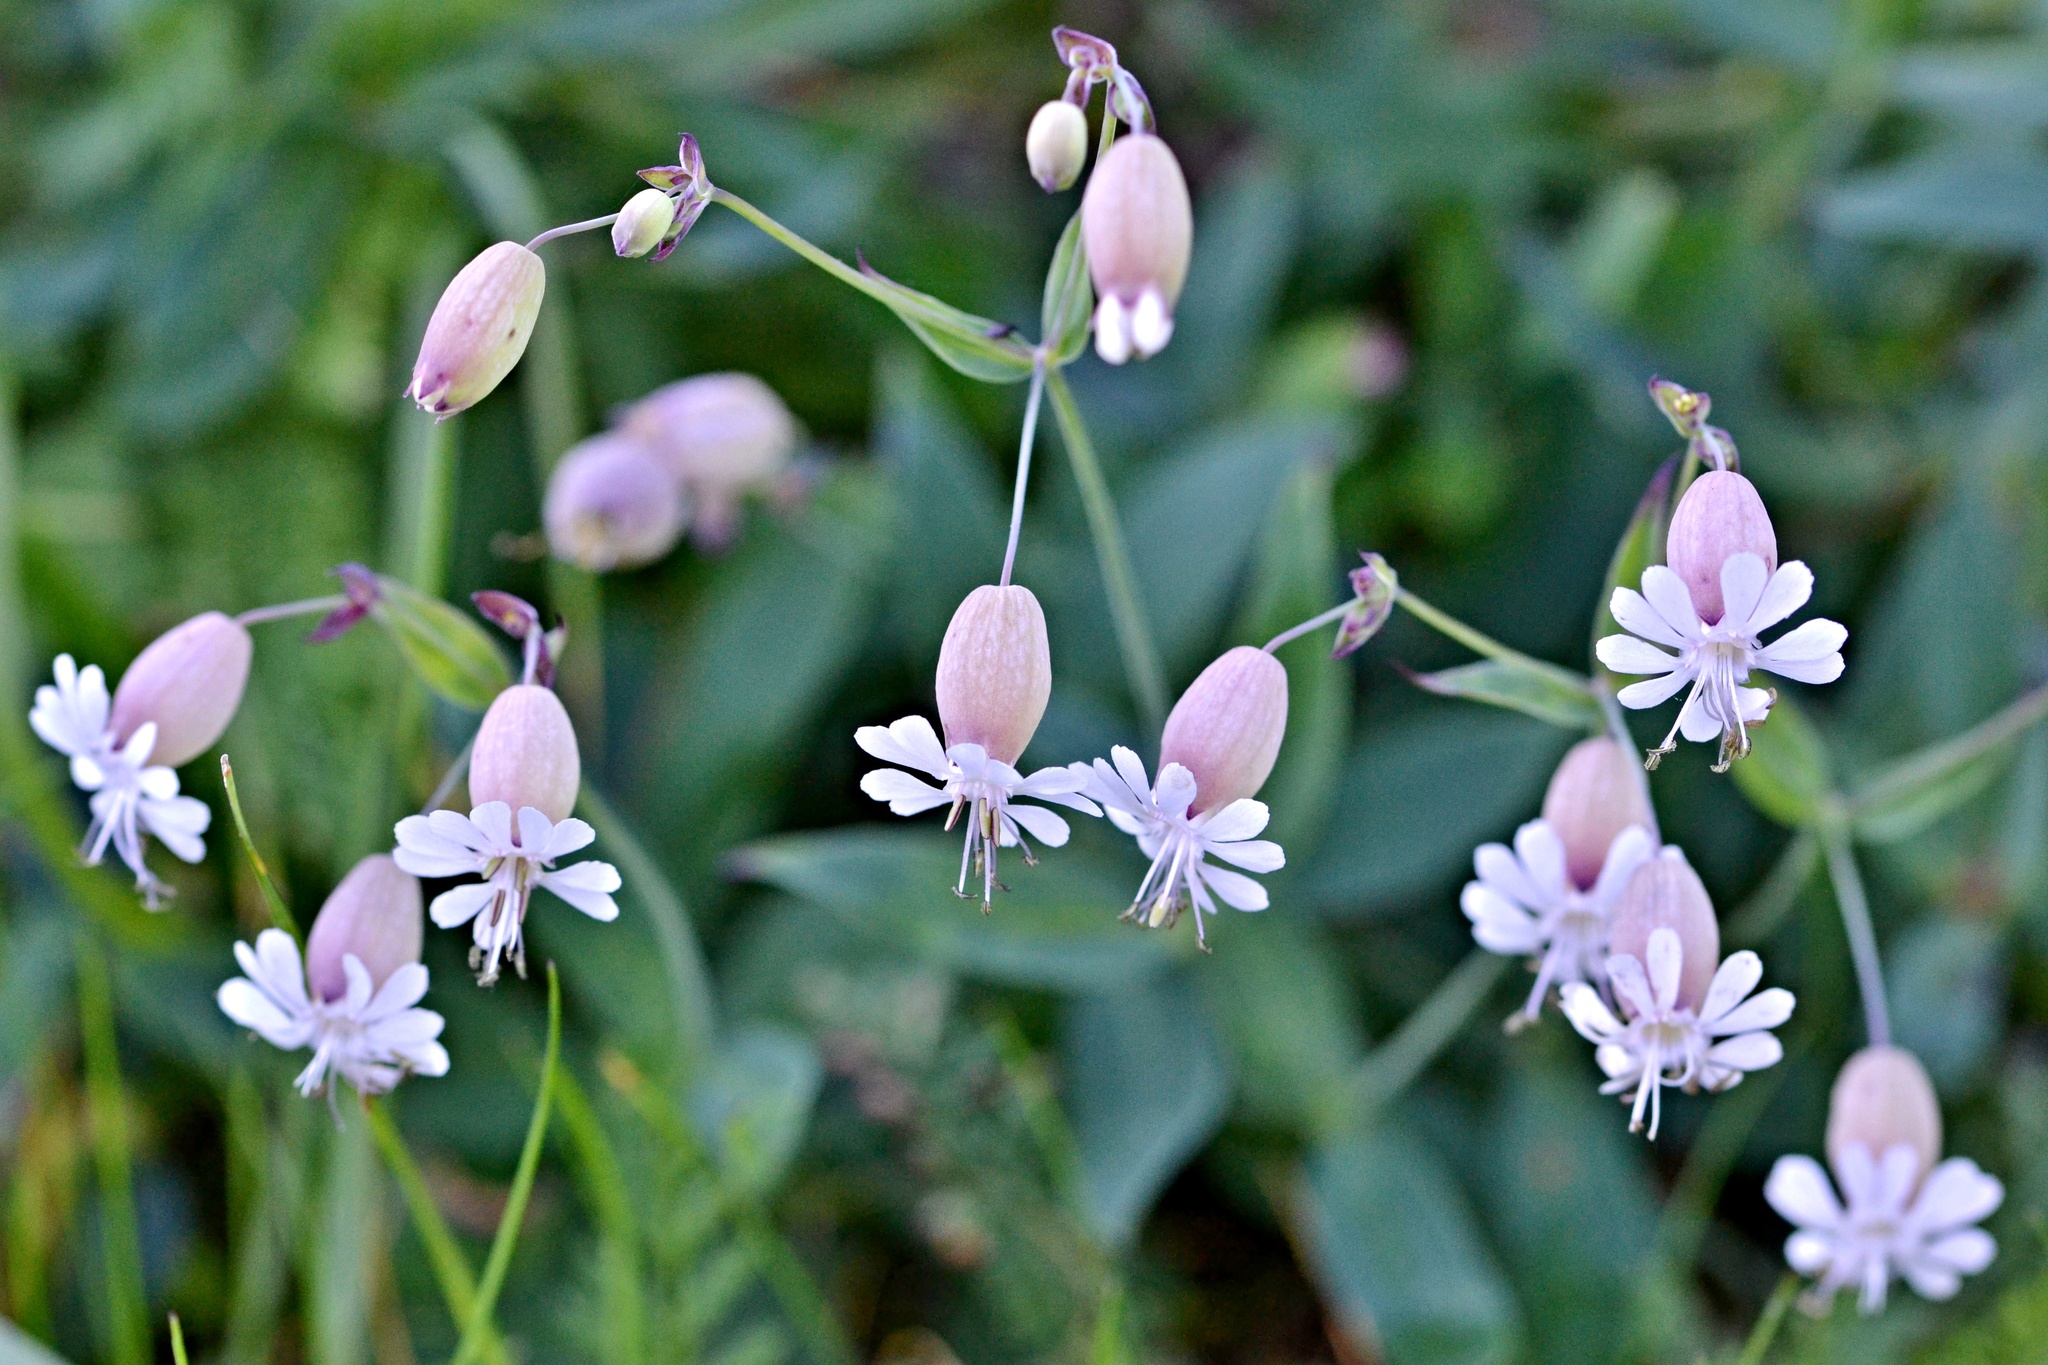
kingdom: Plantae
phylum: Tracheophyta
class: Magnoliopsida
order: Caryophyllales
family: Caryophyllaceae
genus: Silene
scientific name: Silene vulgaris
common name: Bladder campion
